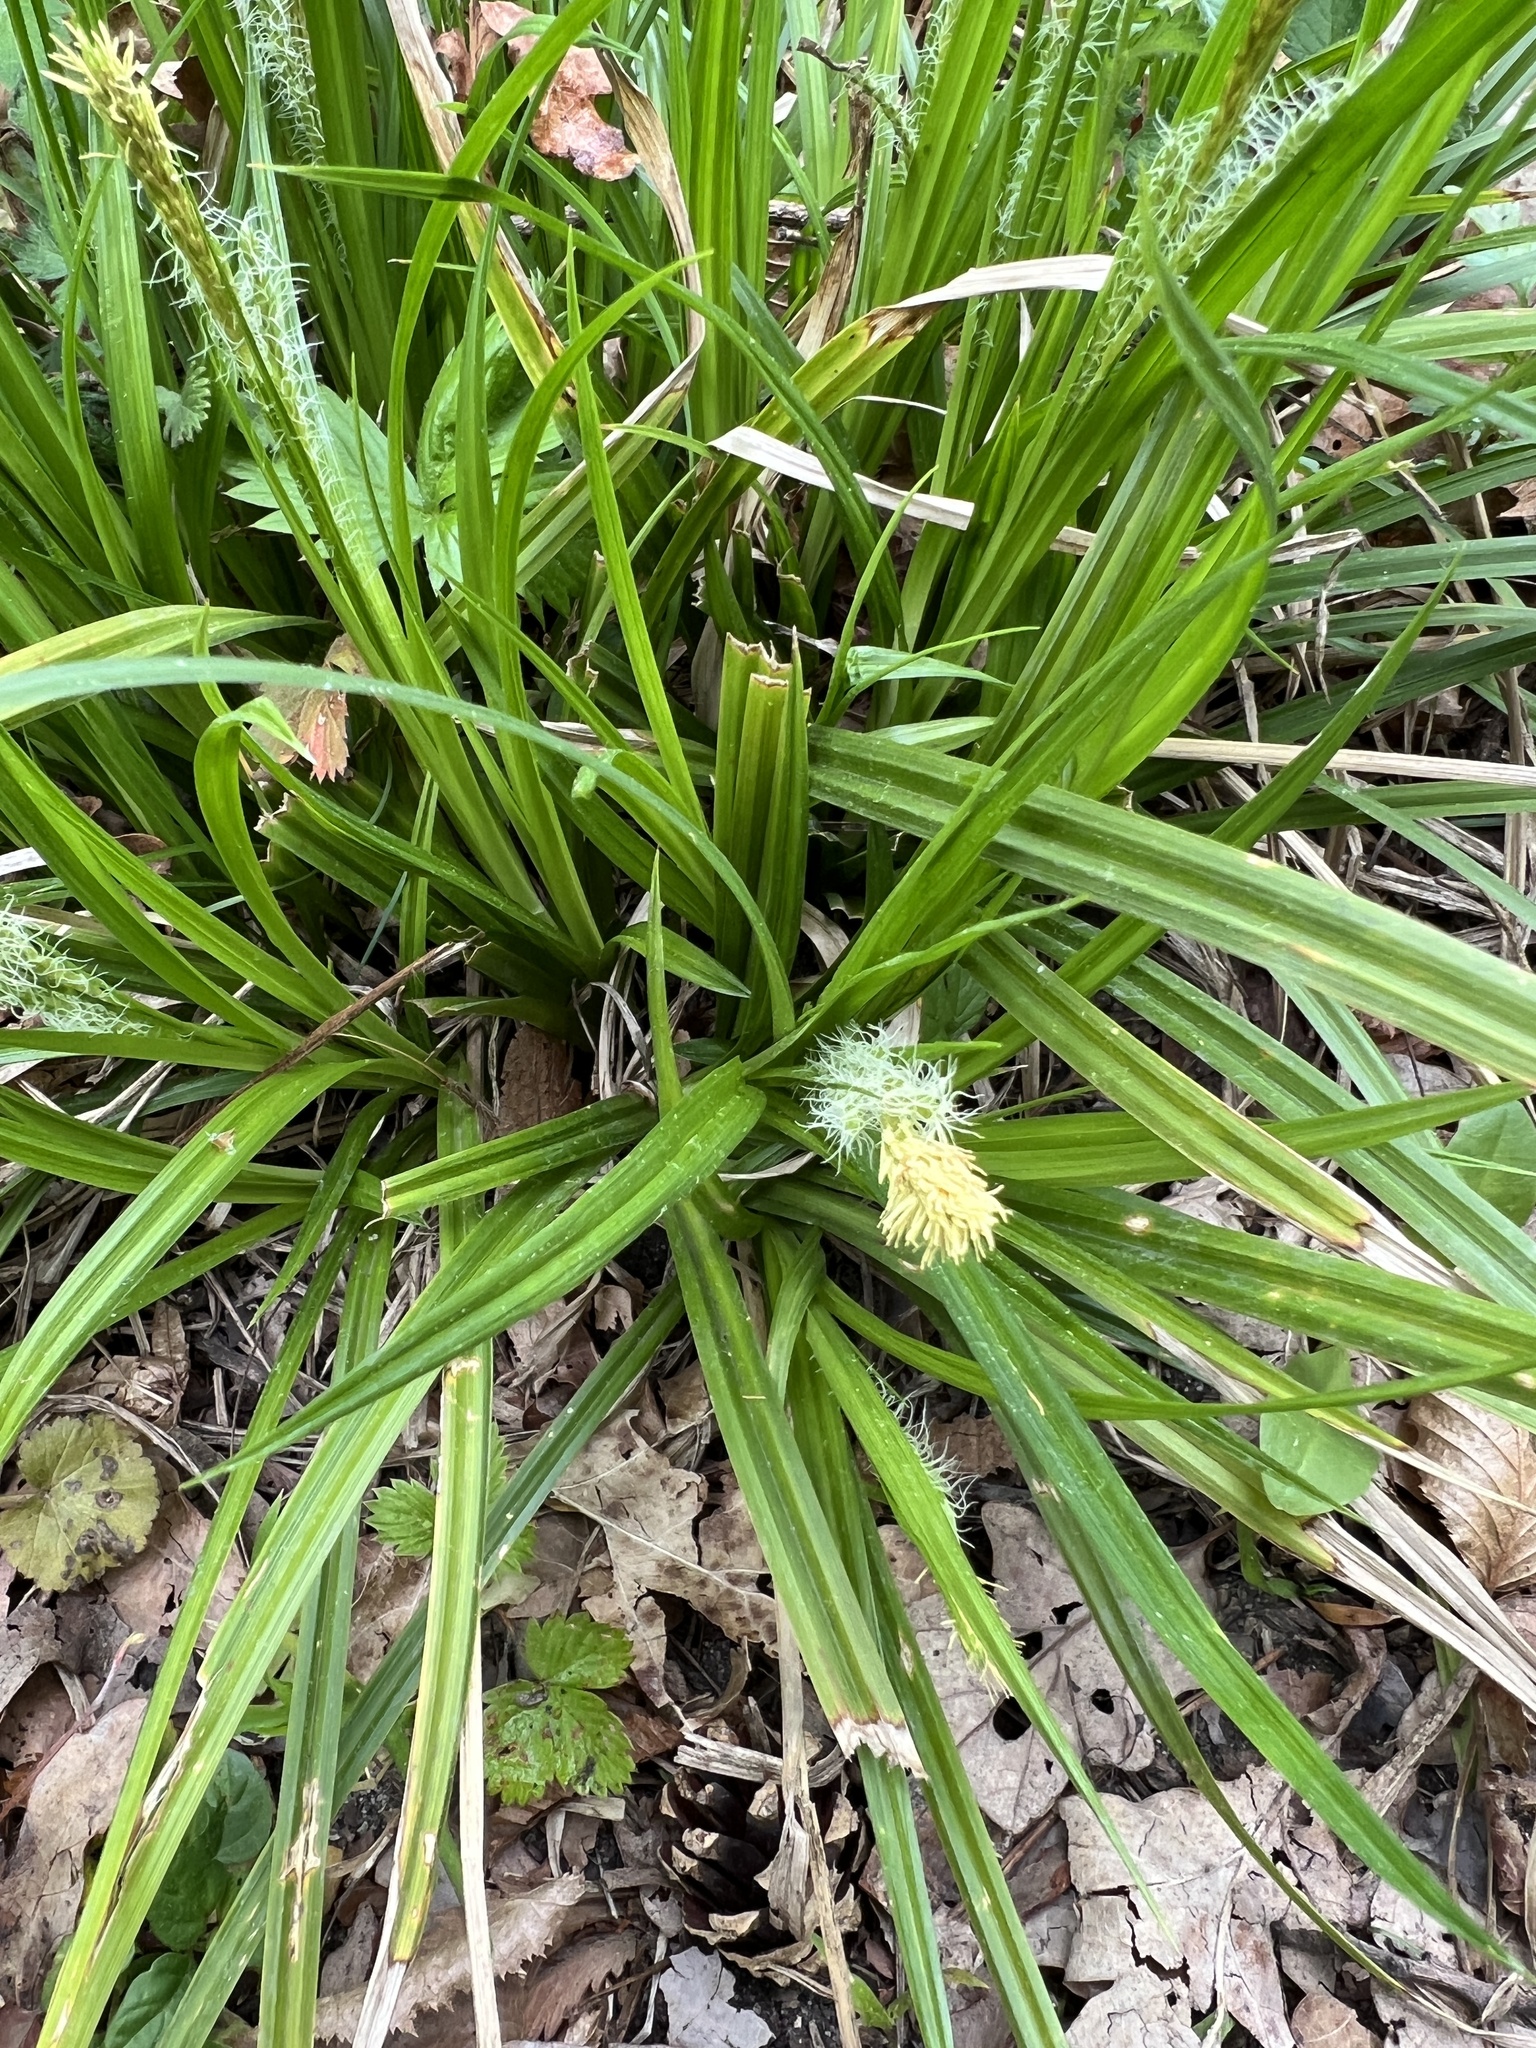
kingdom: Plantae
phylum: Tracheophyta
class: Liliopsida
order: Poales
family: Cyperaceae
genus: Carex
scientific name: Carex sylvatica
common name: Wood-sedge
